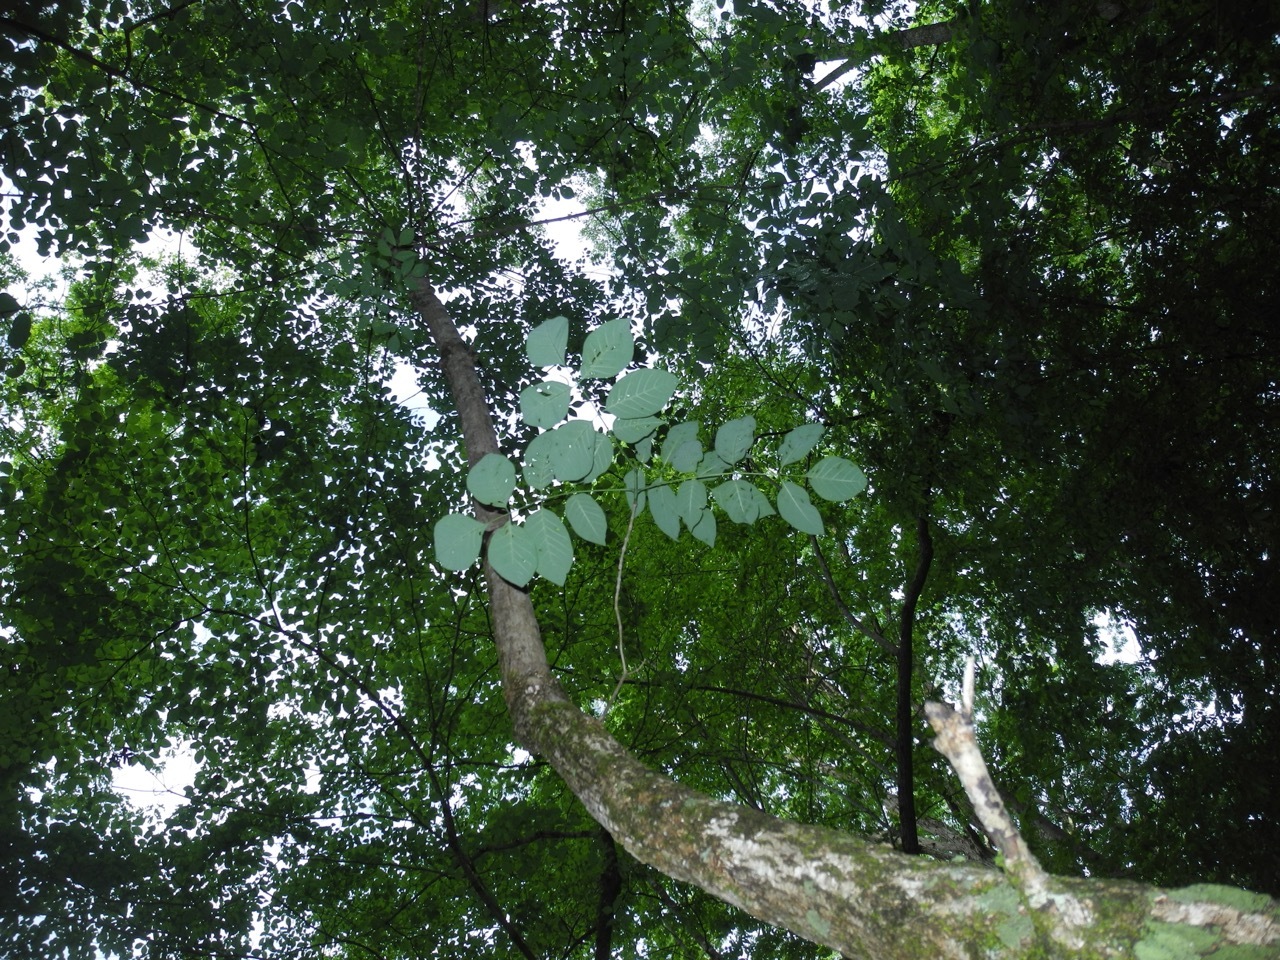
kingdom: Plantae
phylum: Tracheophyta
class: Magnoliopsida
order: Lamiales
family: Oleaceae
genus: Fraxinus
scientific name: Fraxinus americana
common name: White ash
